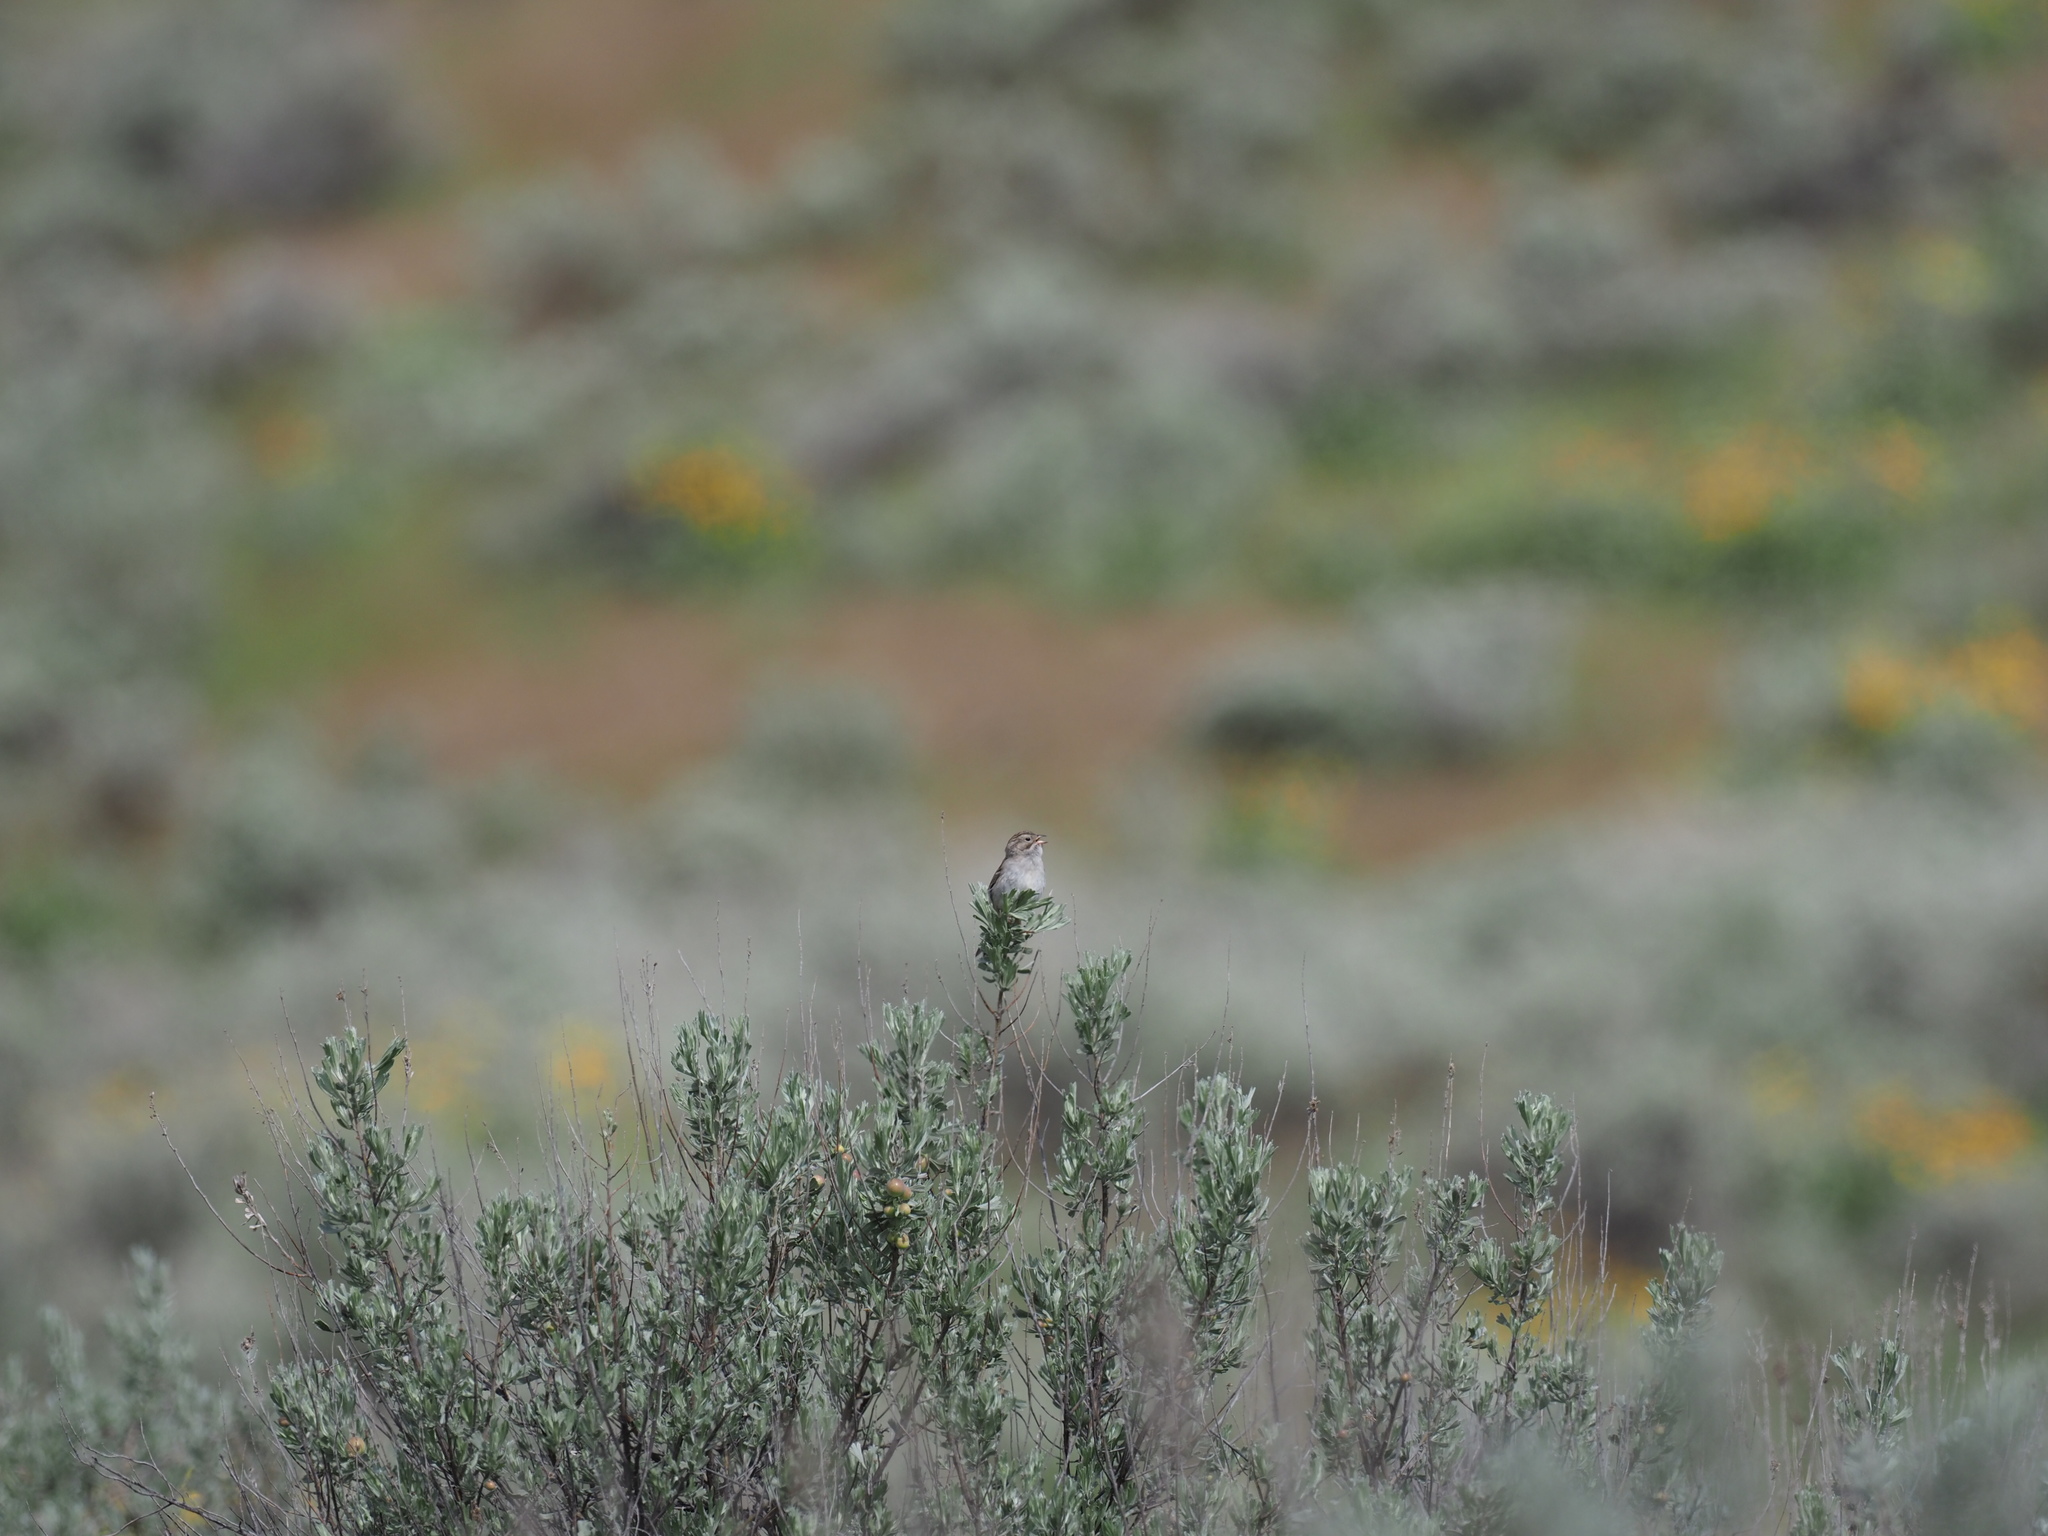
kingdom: Animalia
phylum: Chordata
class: Aves
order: Passeriformes
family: Passerellidae
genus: Spizella
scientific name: Spizella breweri
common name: Brewer's sparrow
